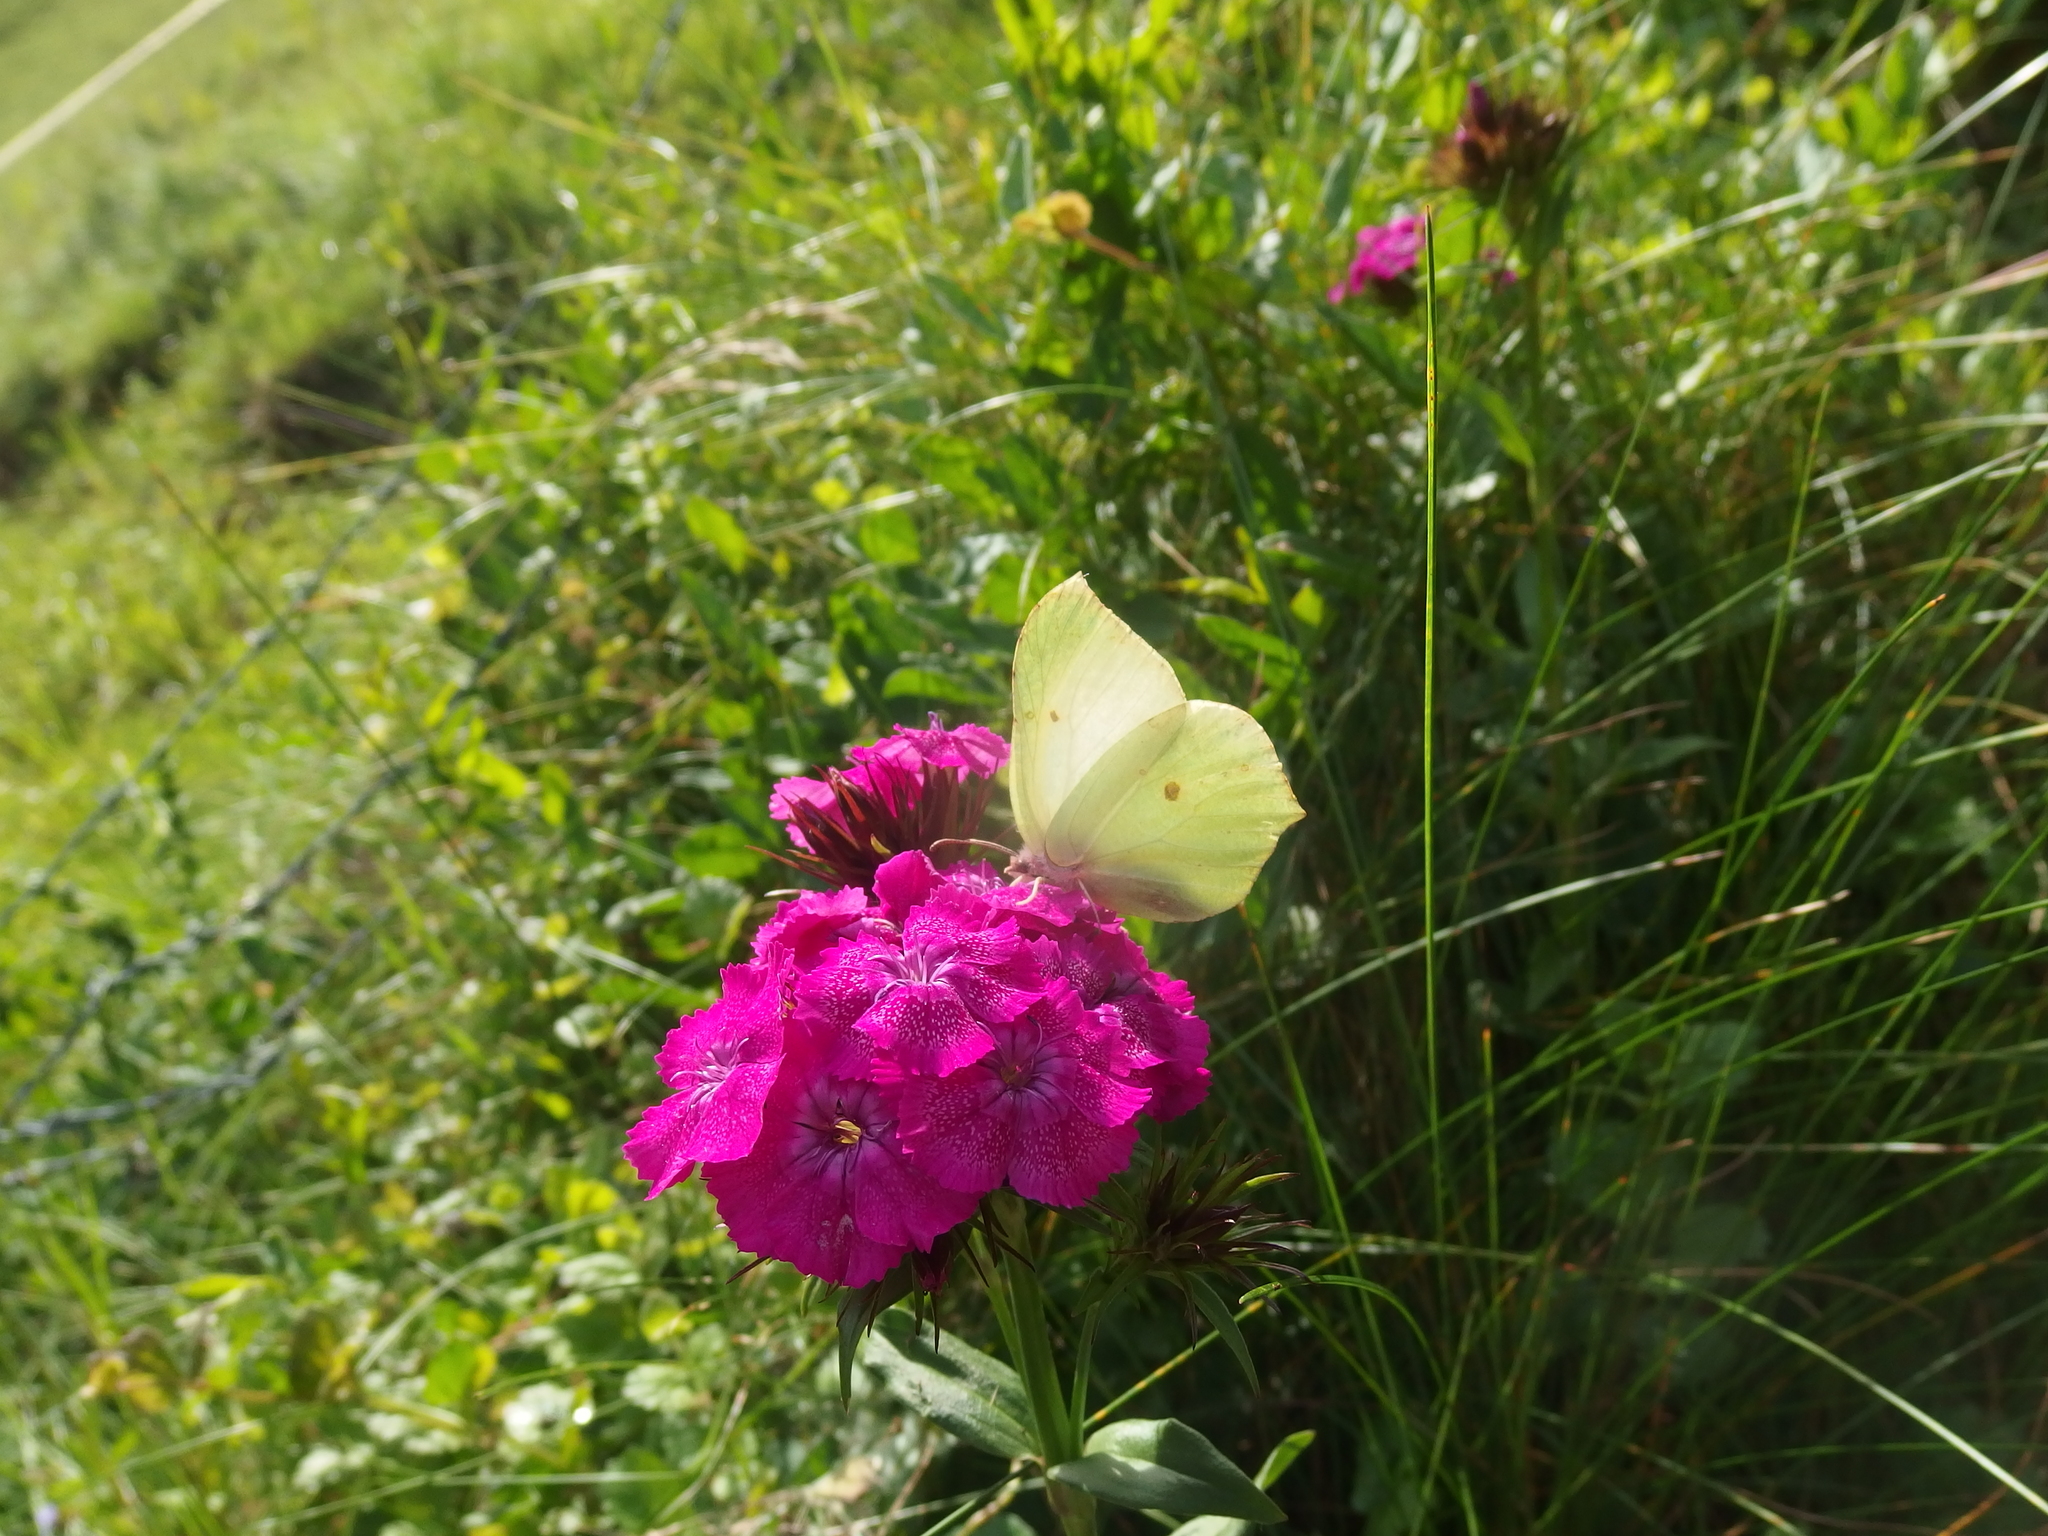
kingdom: Animalia
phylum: Arthropoda
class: Insecta
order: Lepidoptera
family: Pieridae
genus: Gonepteryx
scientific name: Gonepteryx rhamni
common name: Brimstone
